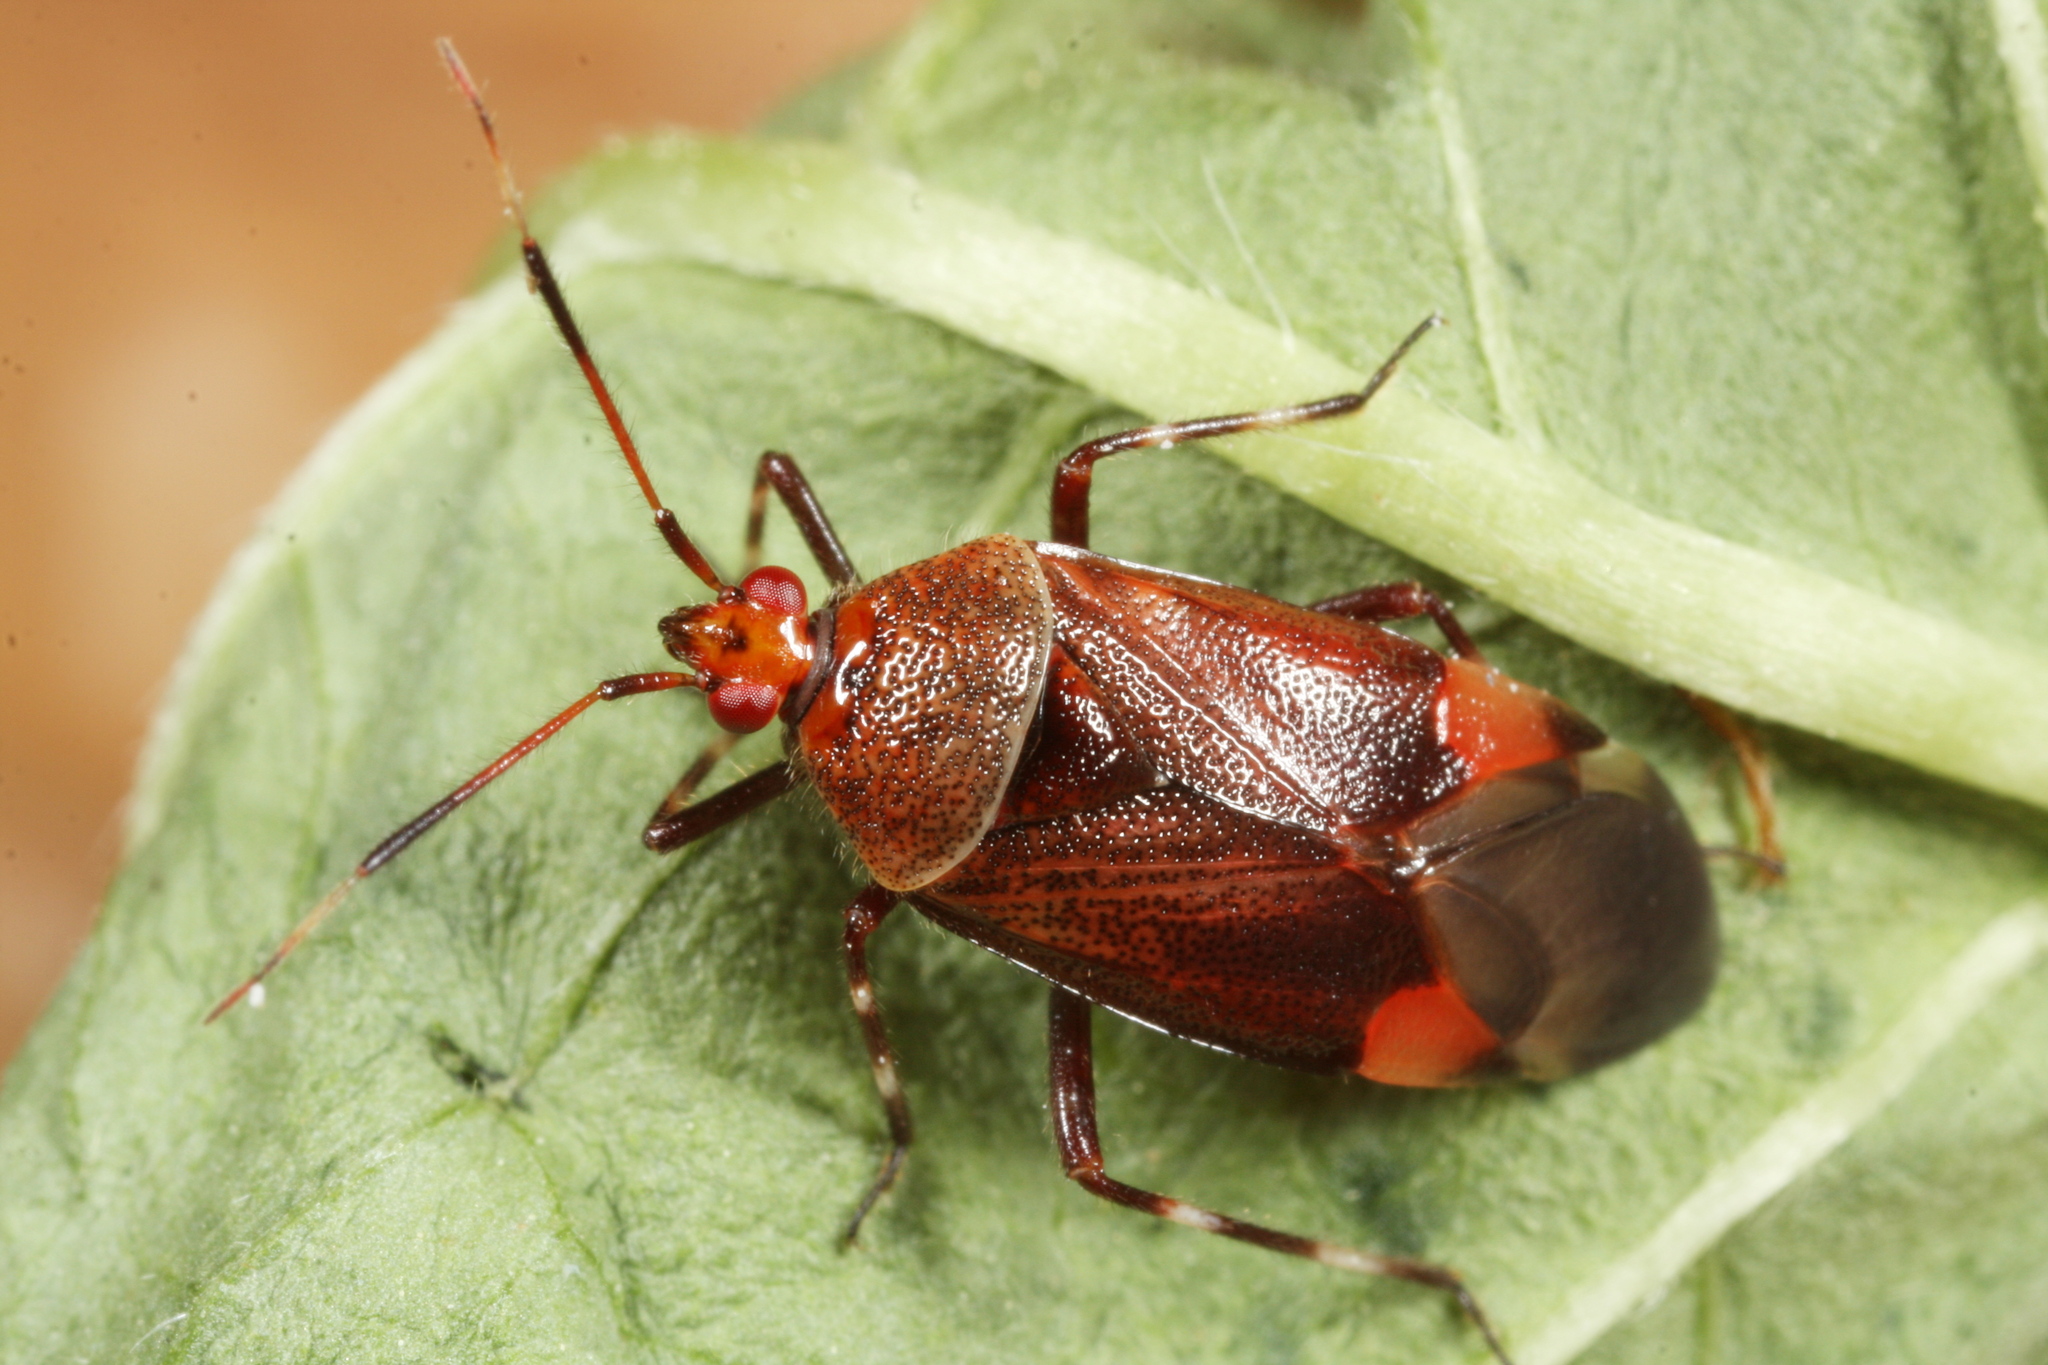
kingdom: Animalia
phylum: Arthropoda
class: Insecta
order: Hemiptera
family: Miridae
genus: Deraeocoris
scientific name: Deraeocoris olivaceus
